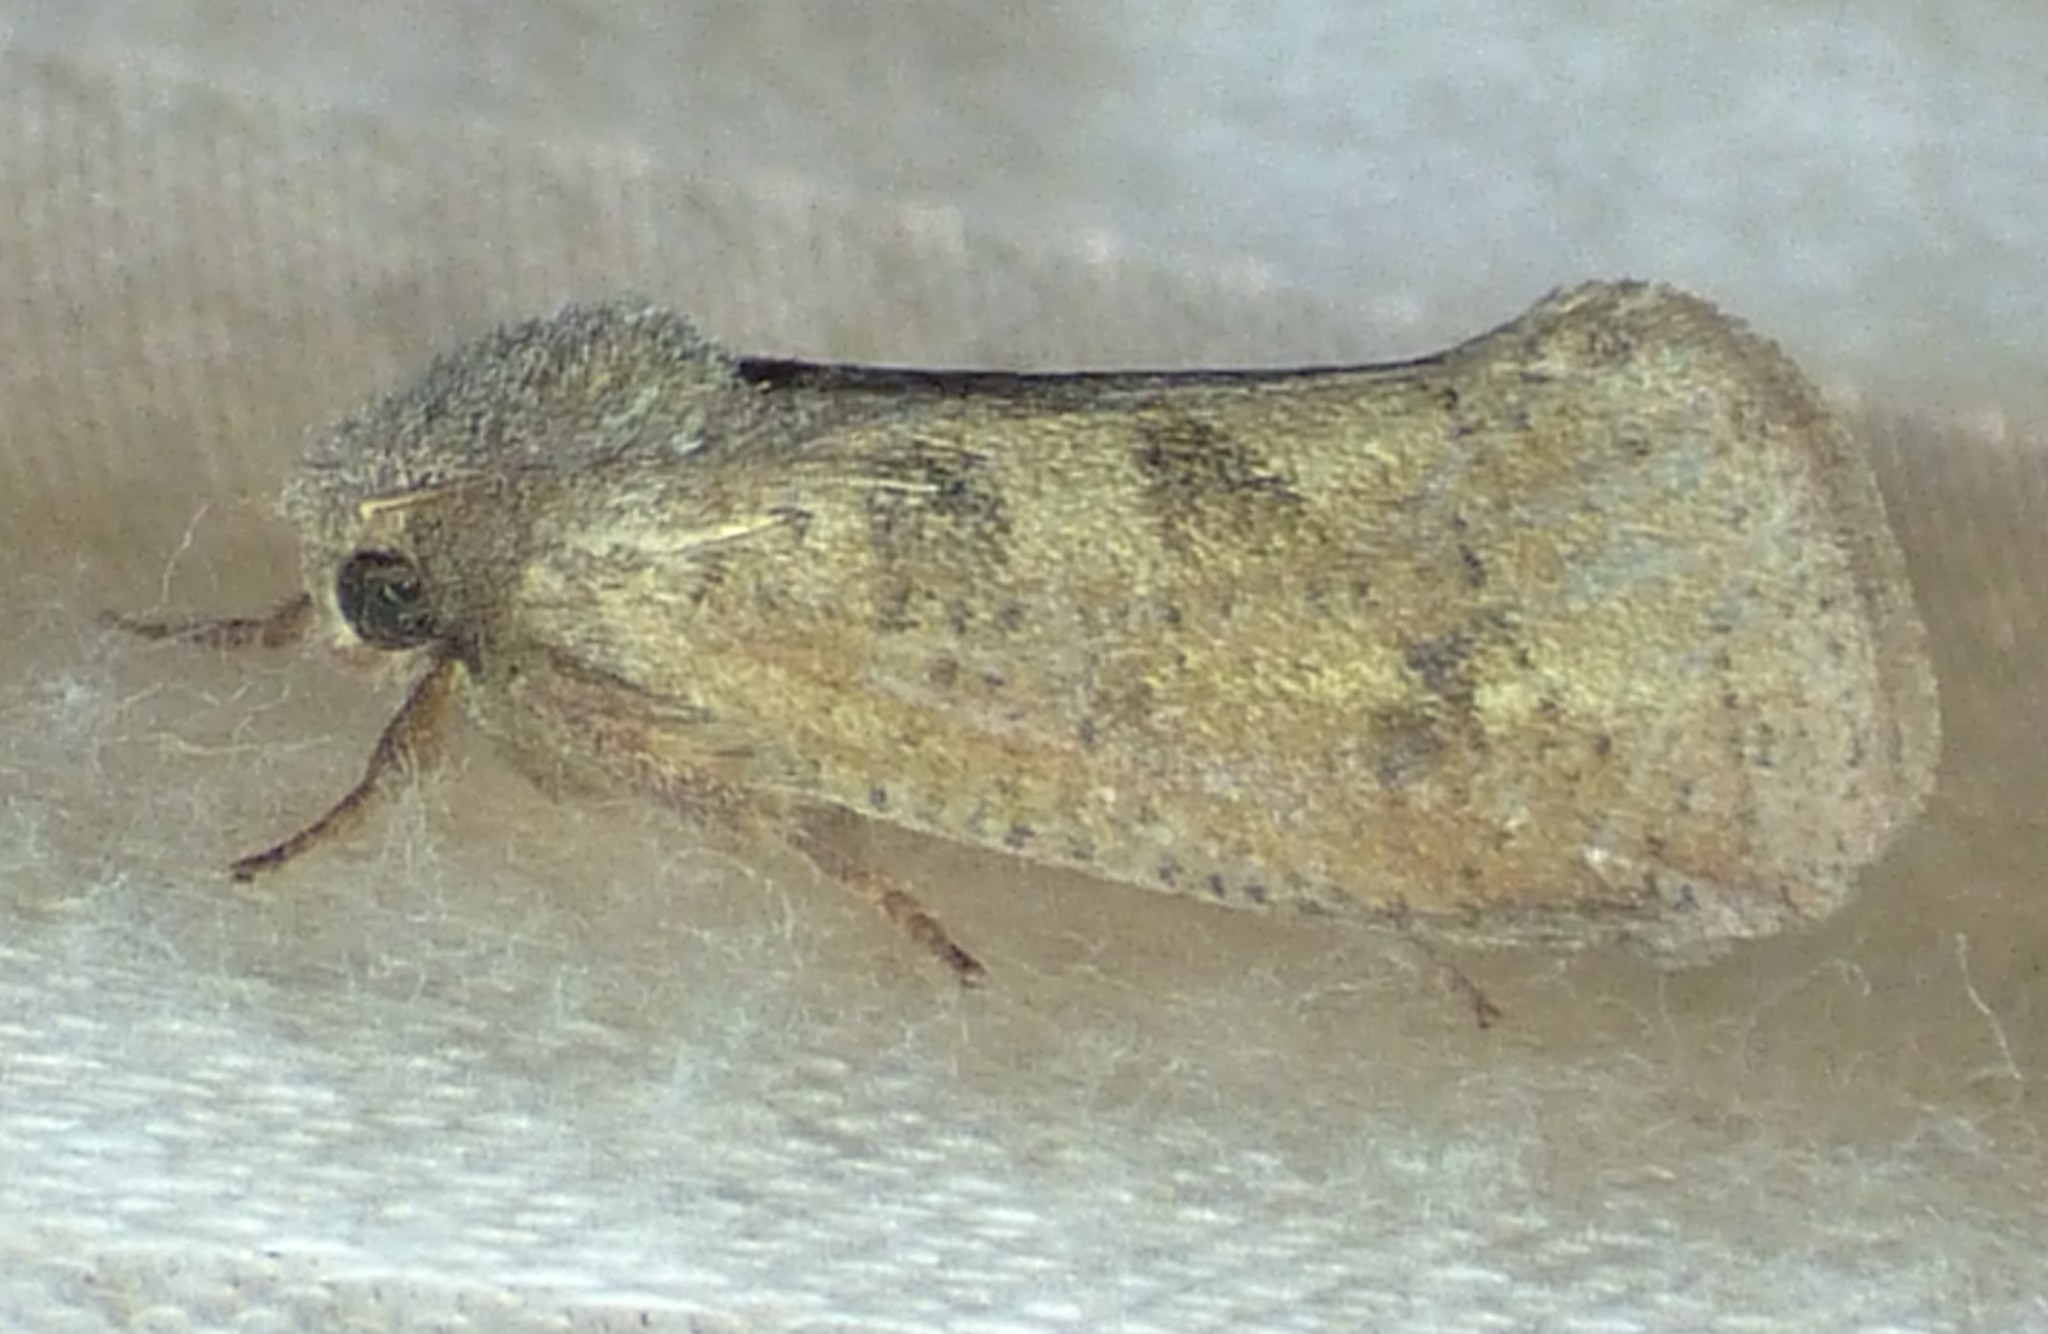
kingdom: Animalia
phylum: Arthropoda
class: Insecta
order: Lepidoptera
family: Tineidae
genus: Acrolophus
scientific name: Acrolophus plumifrontella
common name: Eastern grass tubeworm moth
